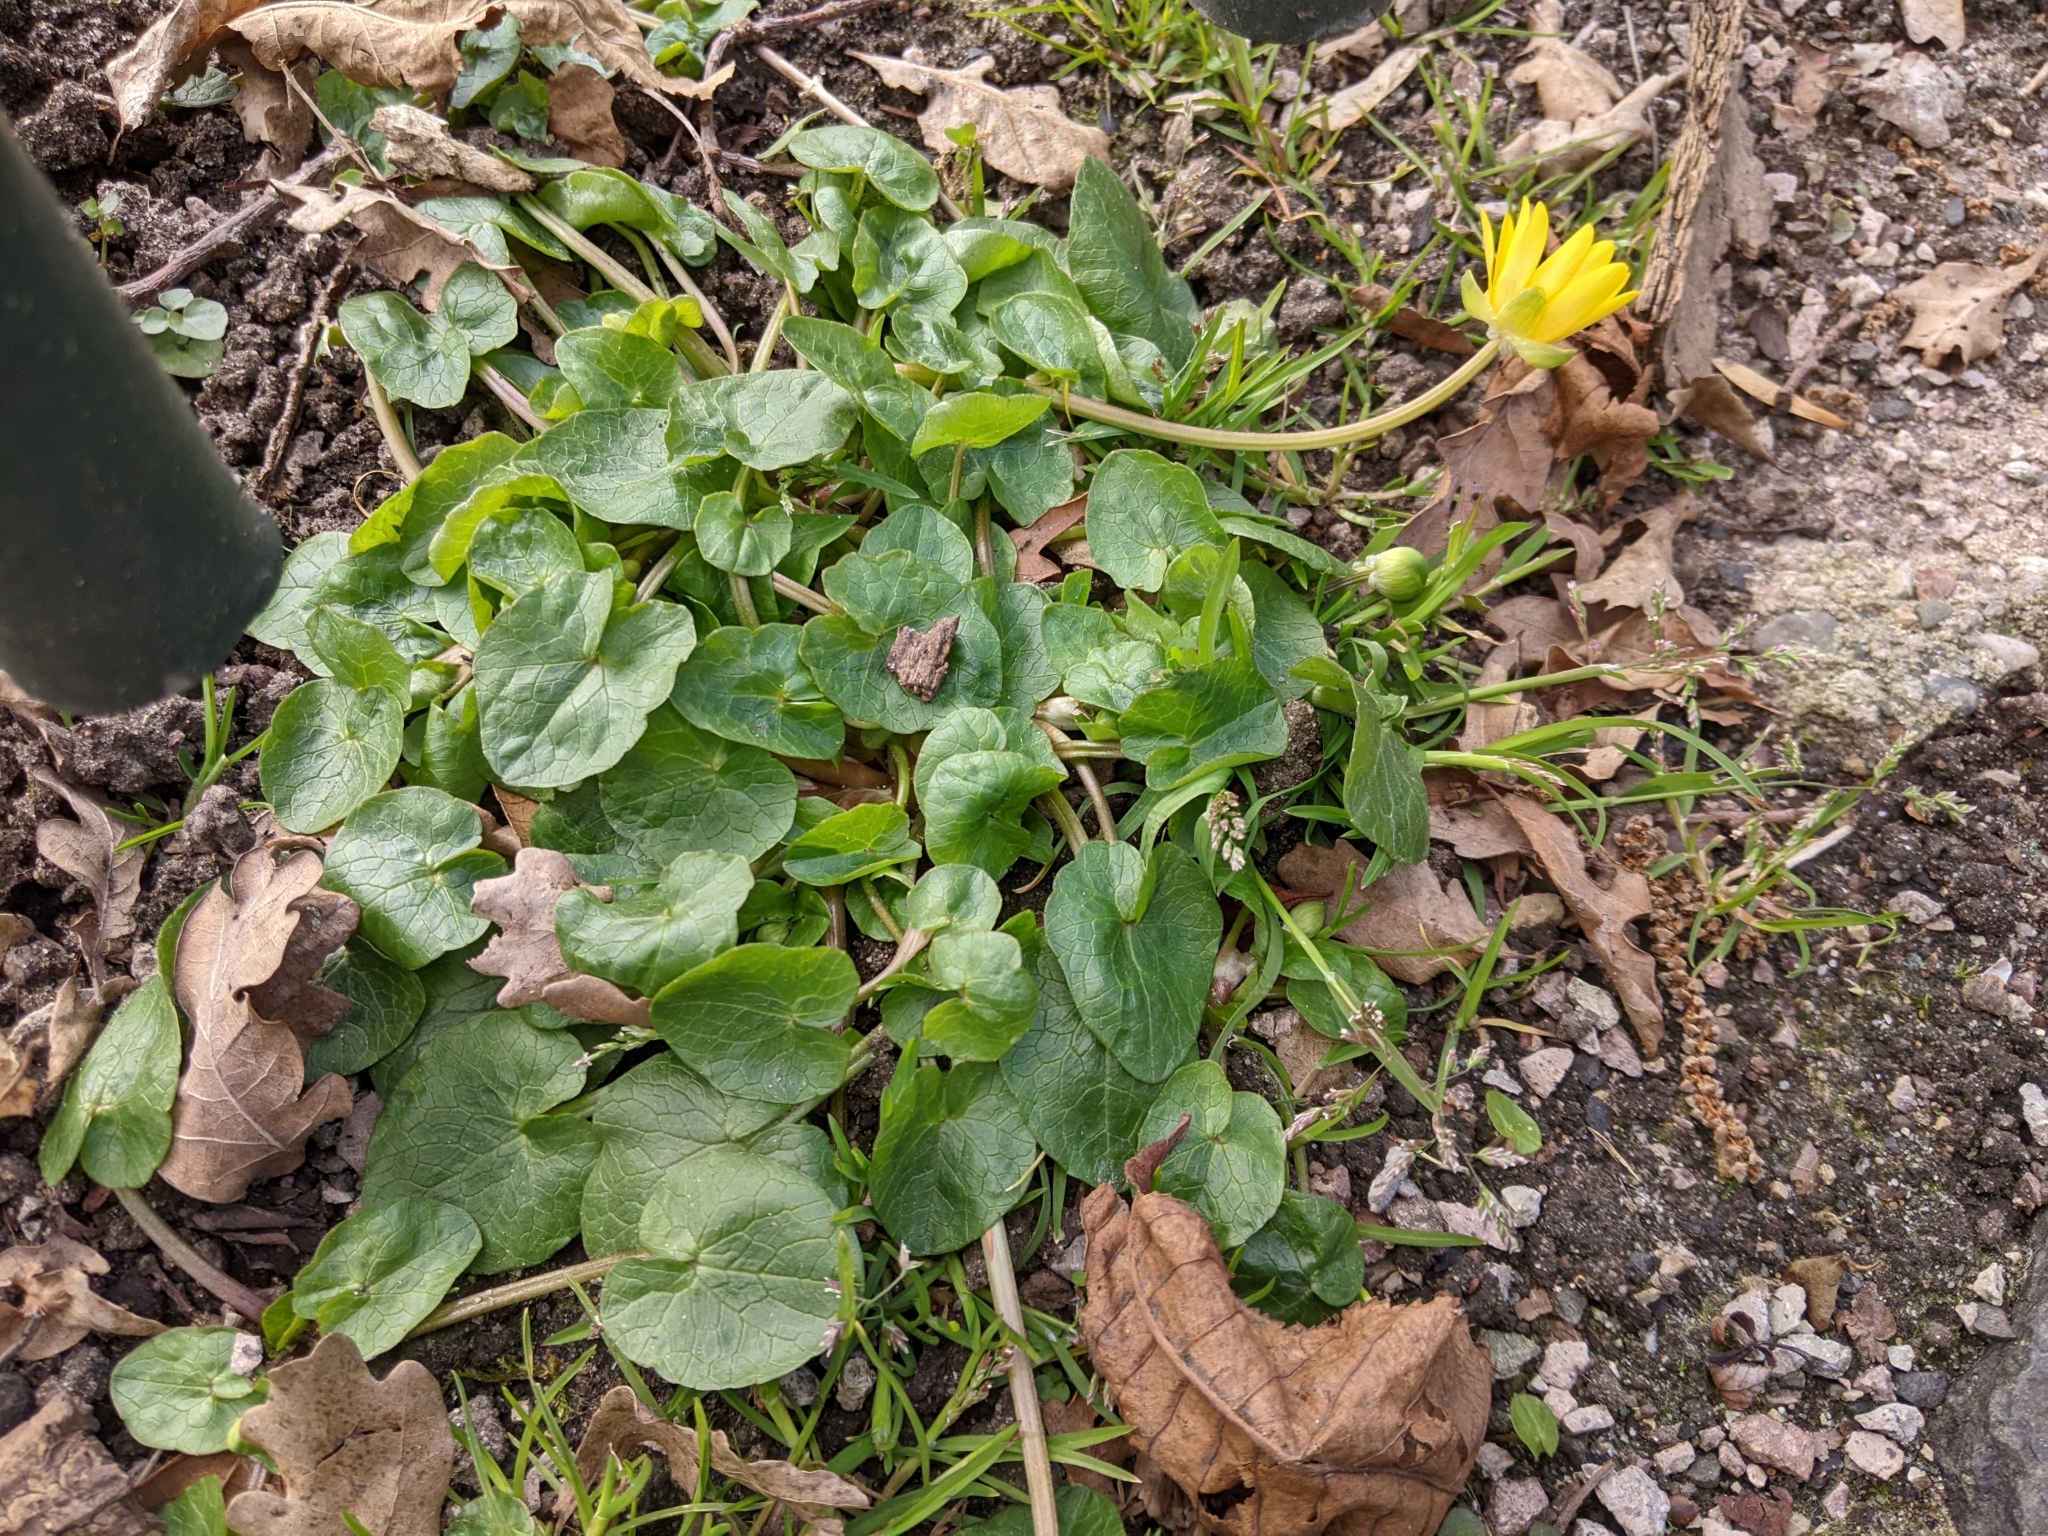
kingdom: Plantae
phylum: Tracheophyta
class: Magnoliopsida
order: Ranunculales
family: Ranunculaceae
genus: Ficaria
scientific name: Ficaria verna
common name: Lesser celandine
